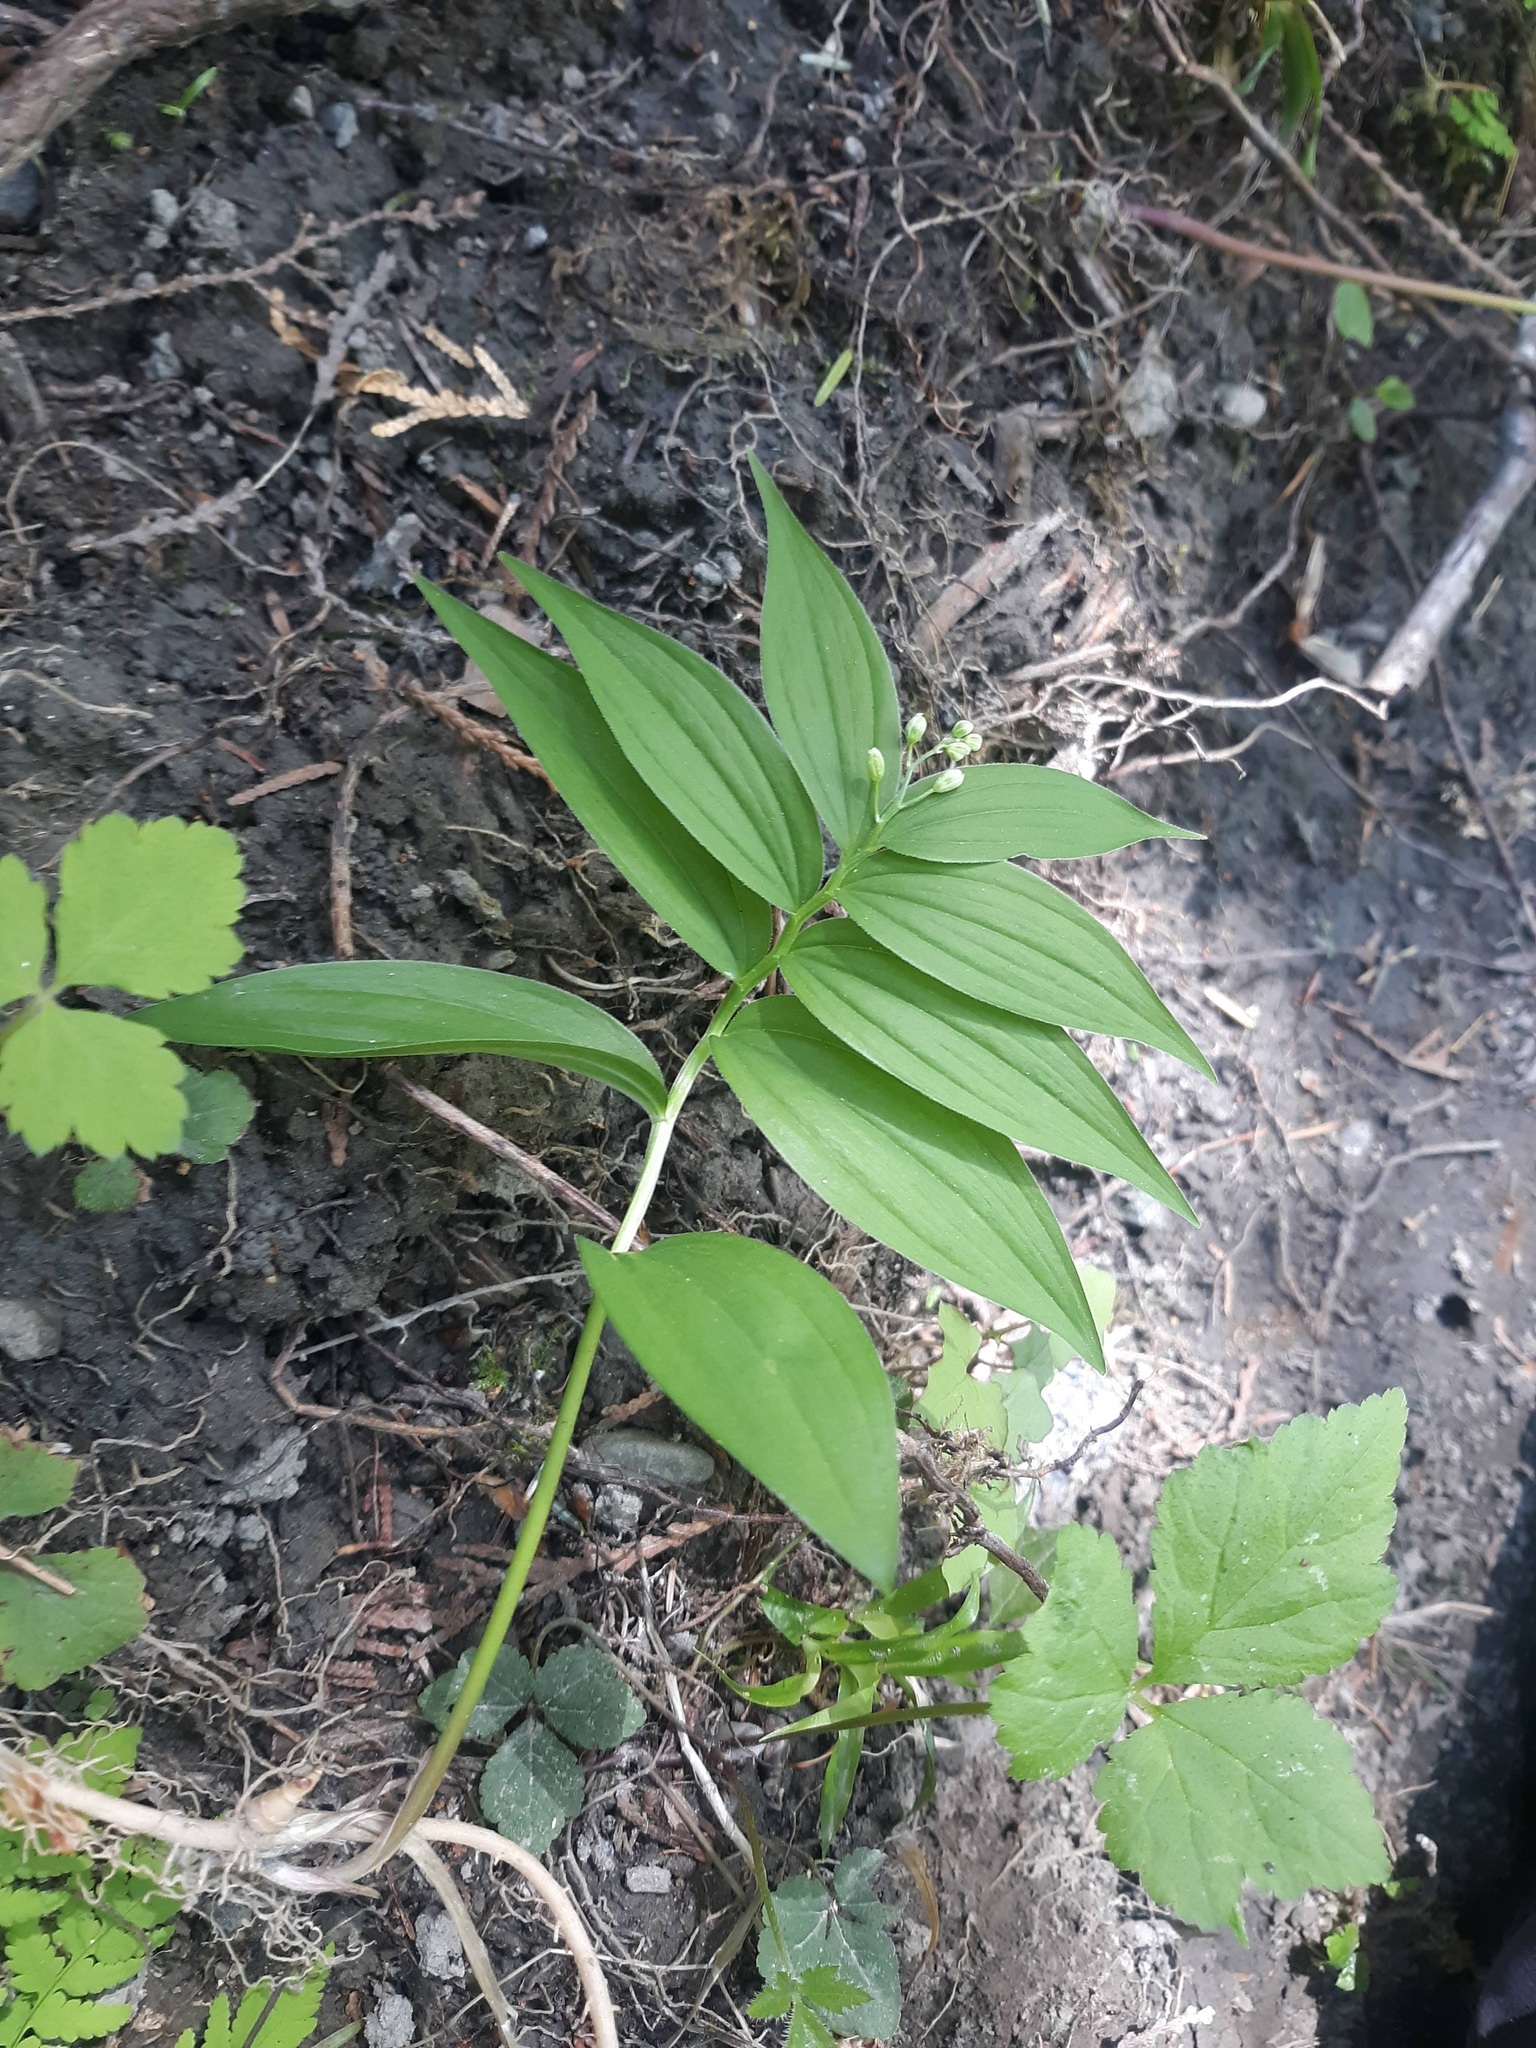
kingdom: Plantae
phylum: Tracheophyta
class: Liliopsida
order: Asparagales
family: Asparagaceae
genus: Maianthemum
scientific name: Maianthemum stellatum
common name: Little false solomon's seal
